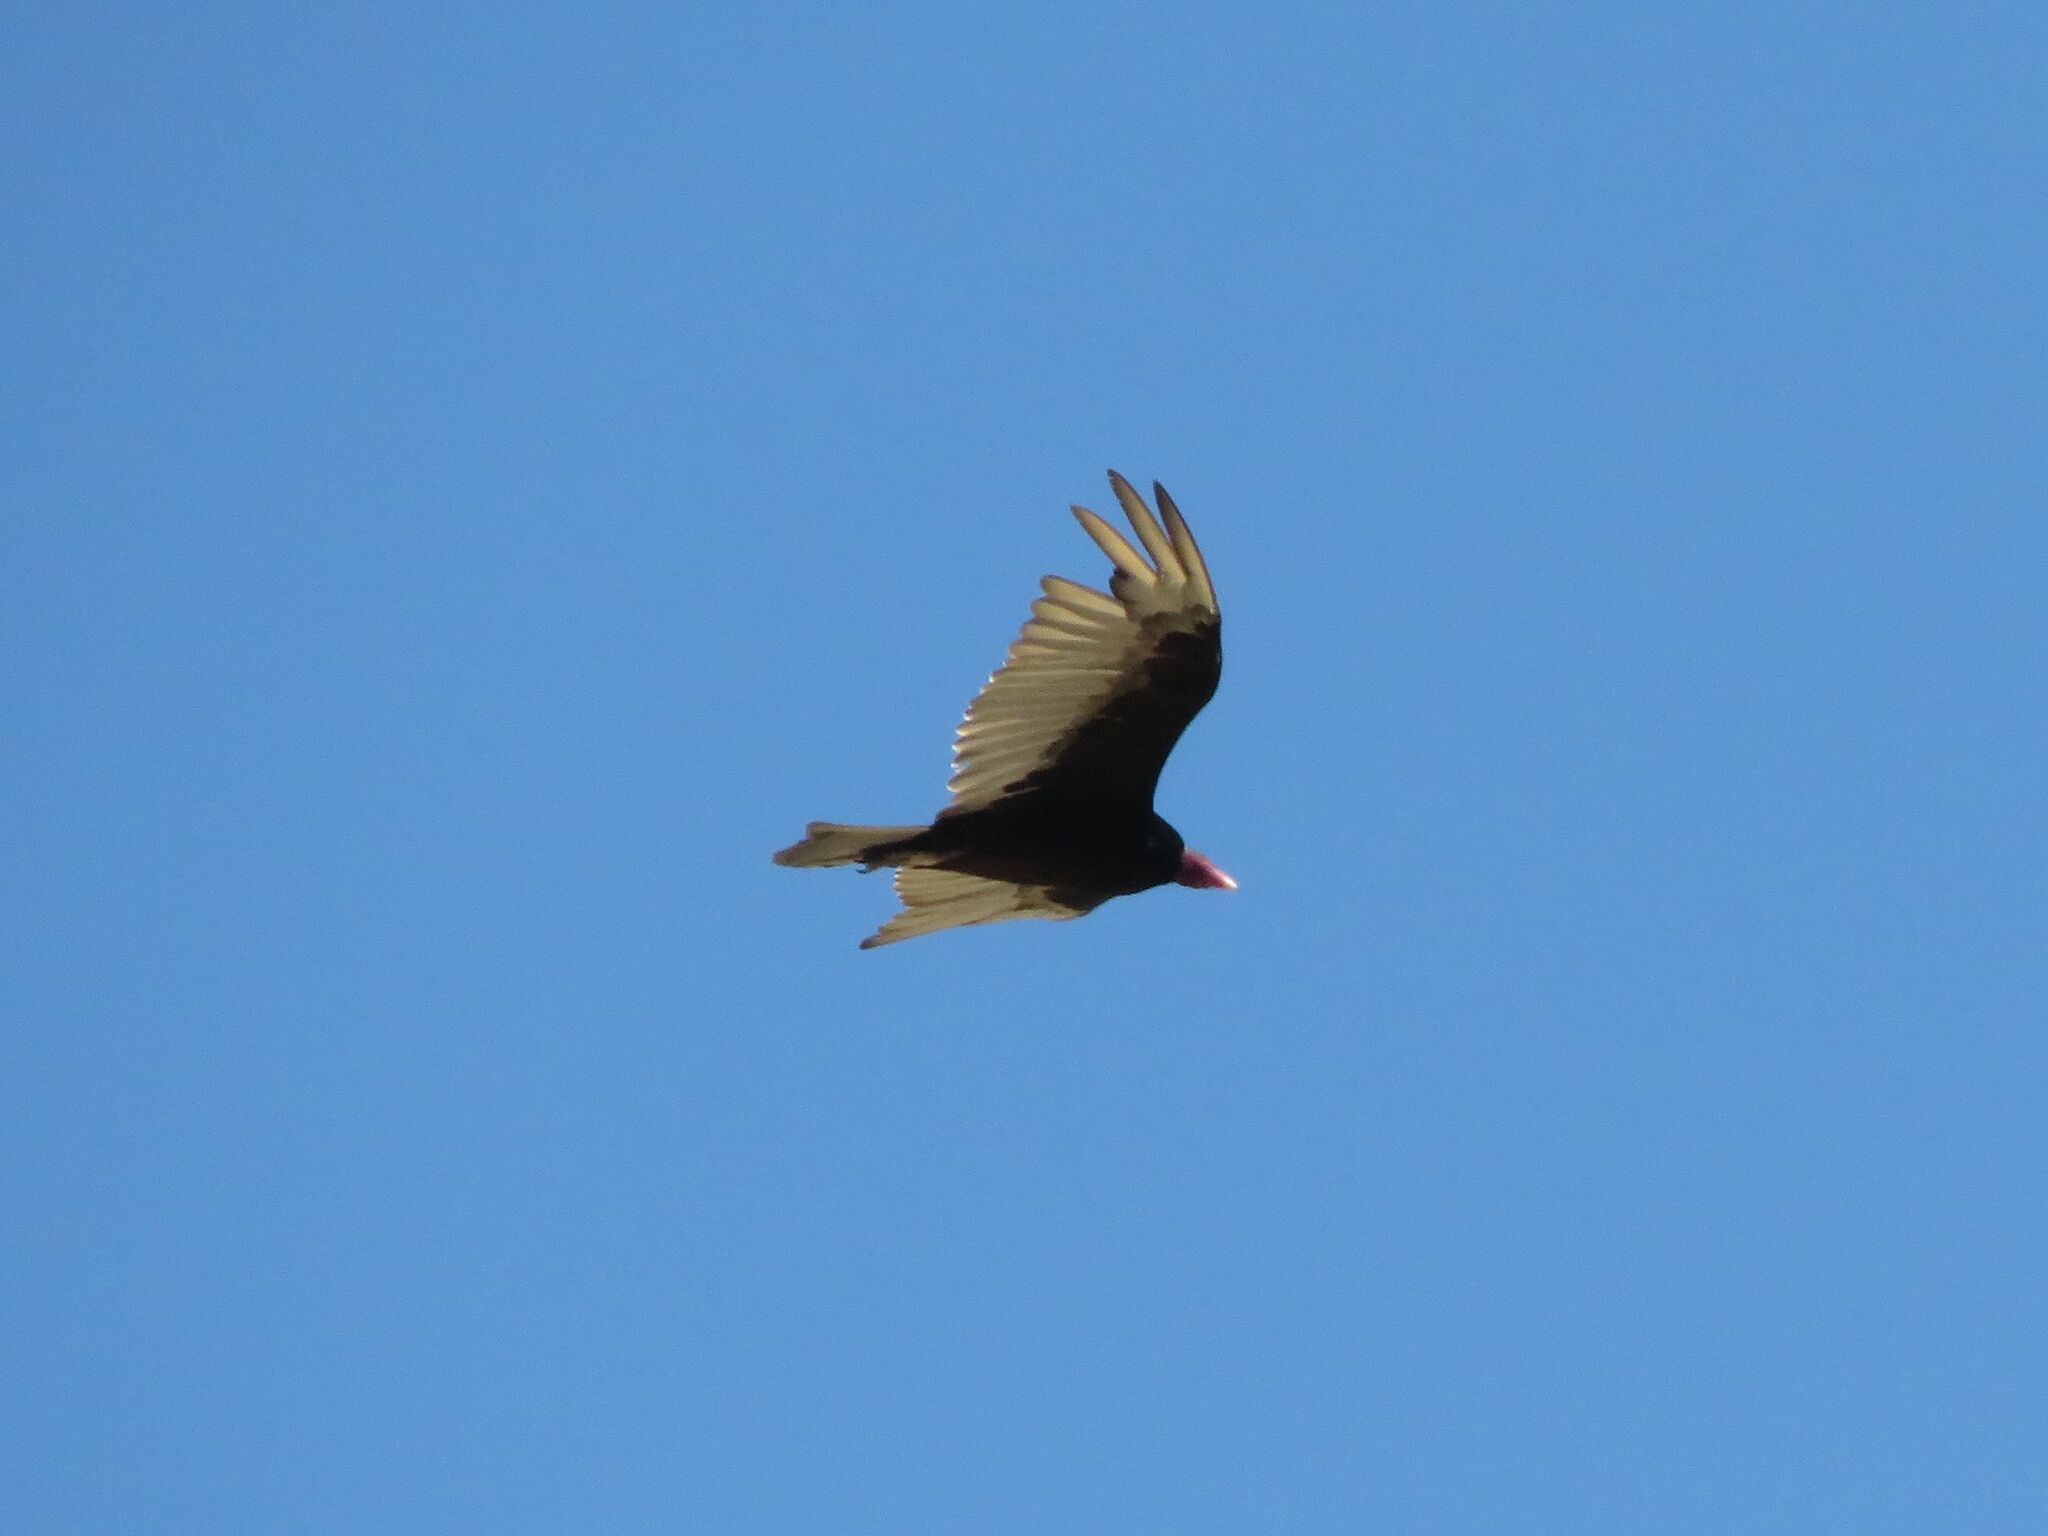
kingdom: Animalia
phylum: Chordata
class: Aves
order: Accipitriformes
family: Cathartidae
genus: Cathartes
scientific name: Cathartes aura
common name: Turkey vulture
